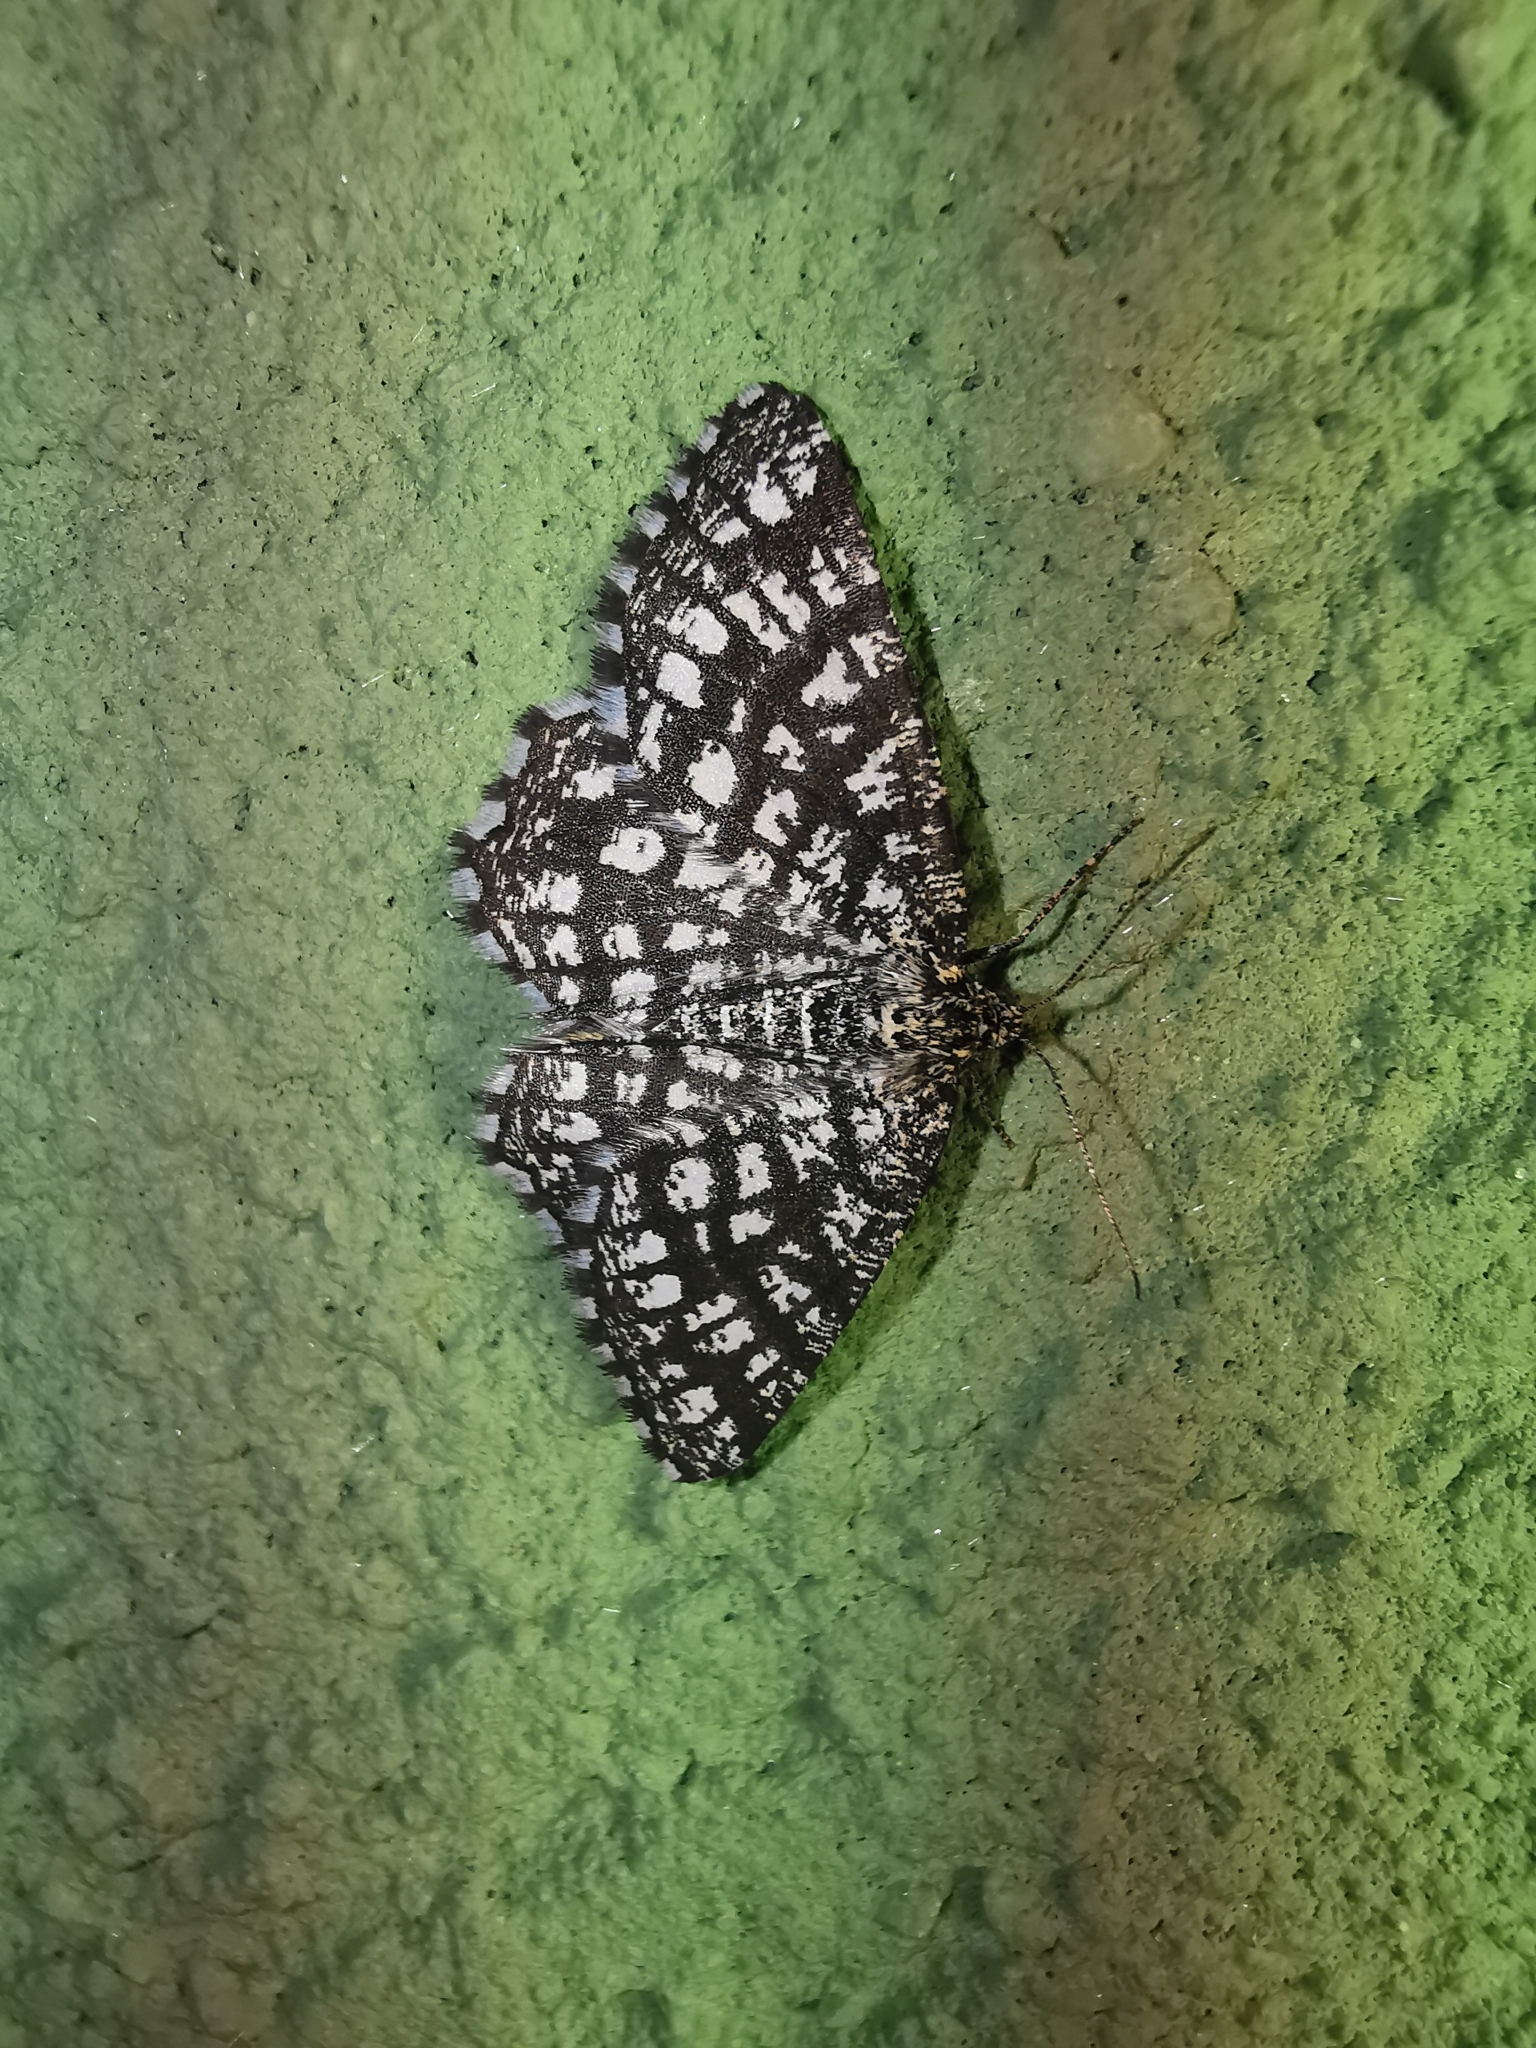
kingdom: Animalia
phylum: Arthropoda
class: Insecta
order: Lepidoptera
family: Geometridae
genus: Chiasmia
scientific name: Chiasmia clathrata
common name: Latticed heath
